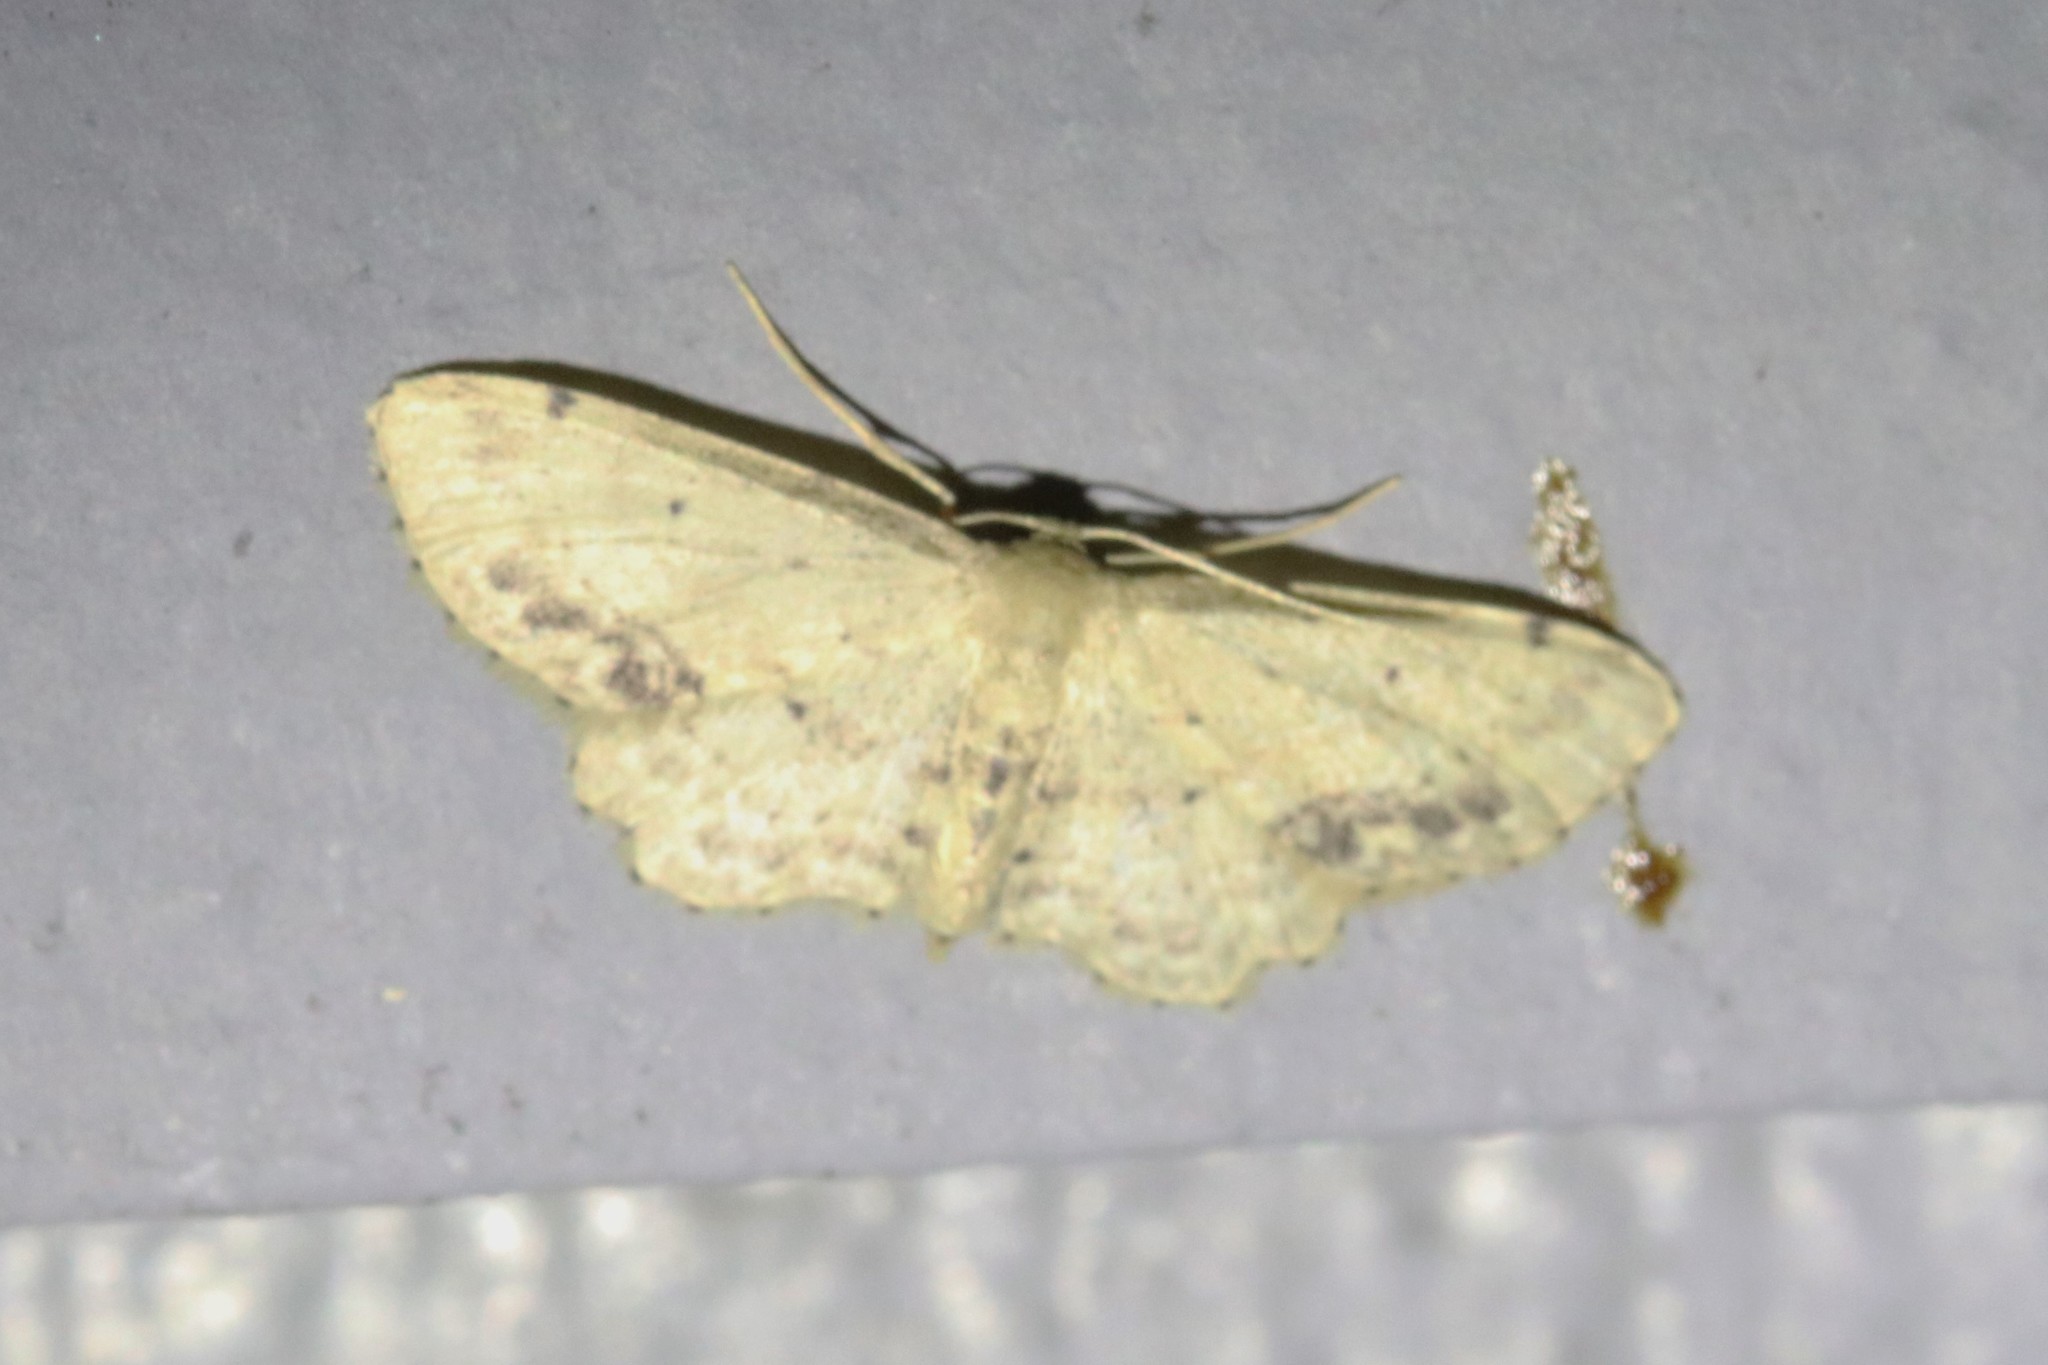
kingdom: Animalia
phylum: Arthropoda
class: Insecta
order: Lepidoptera
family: Geometridae
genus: Idaea
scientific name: Idaea dimidiata
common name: Single-dotted wave
